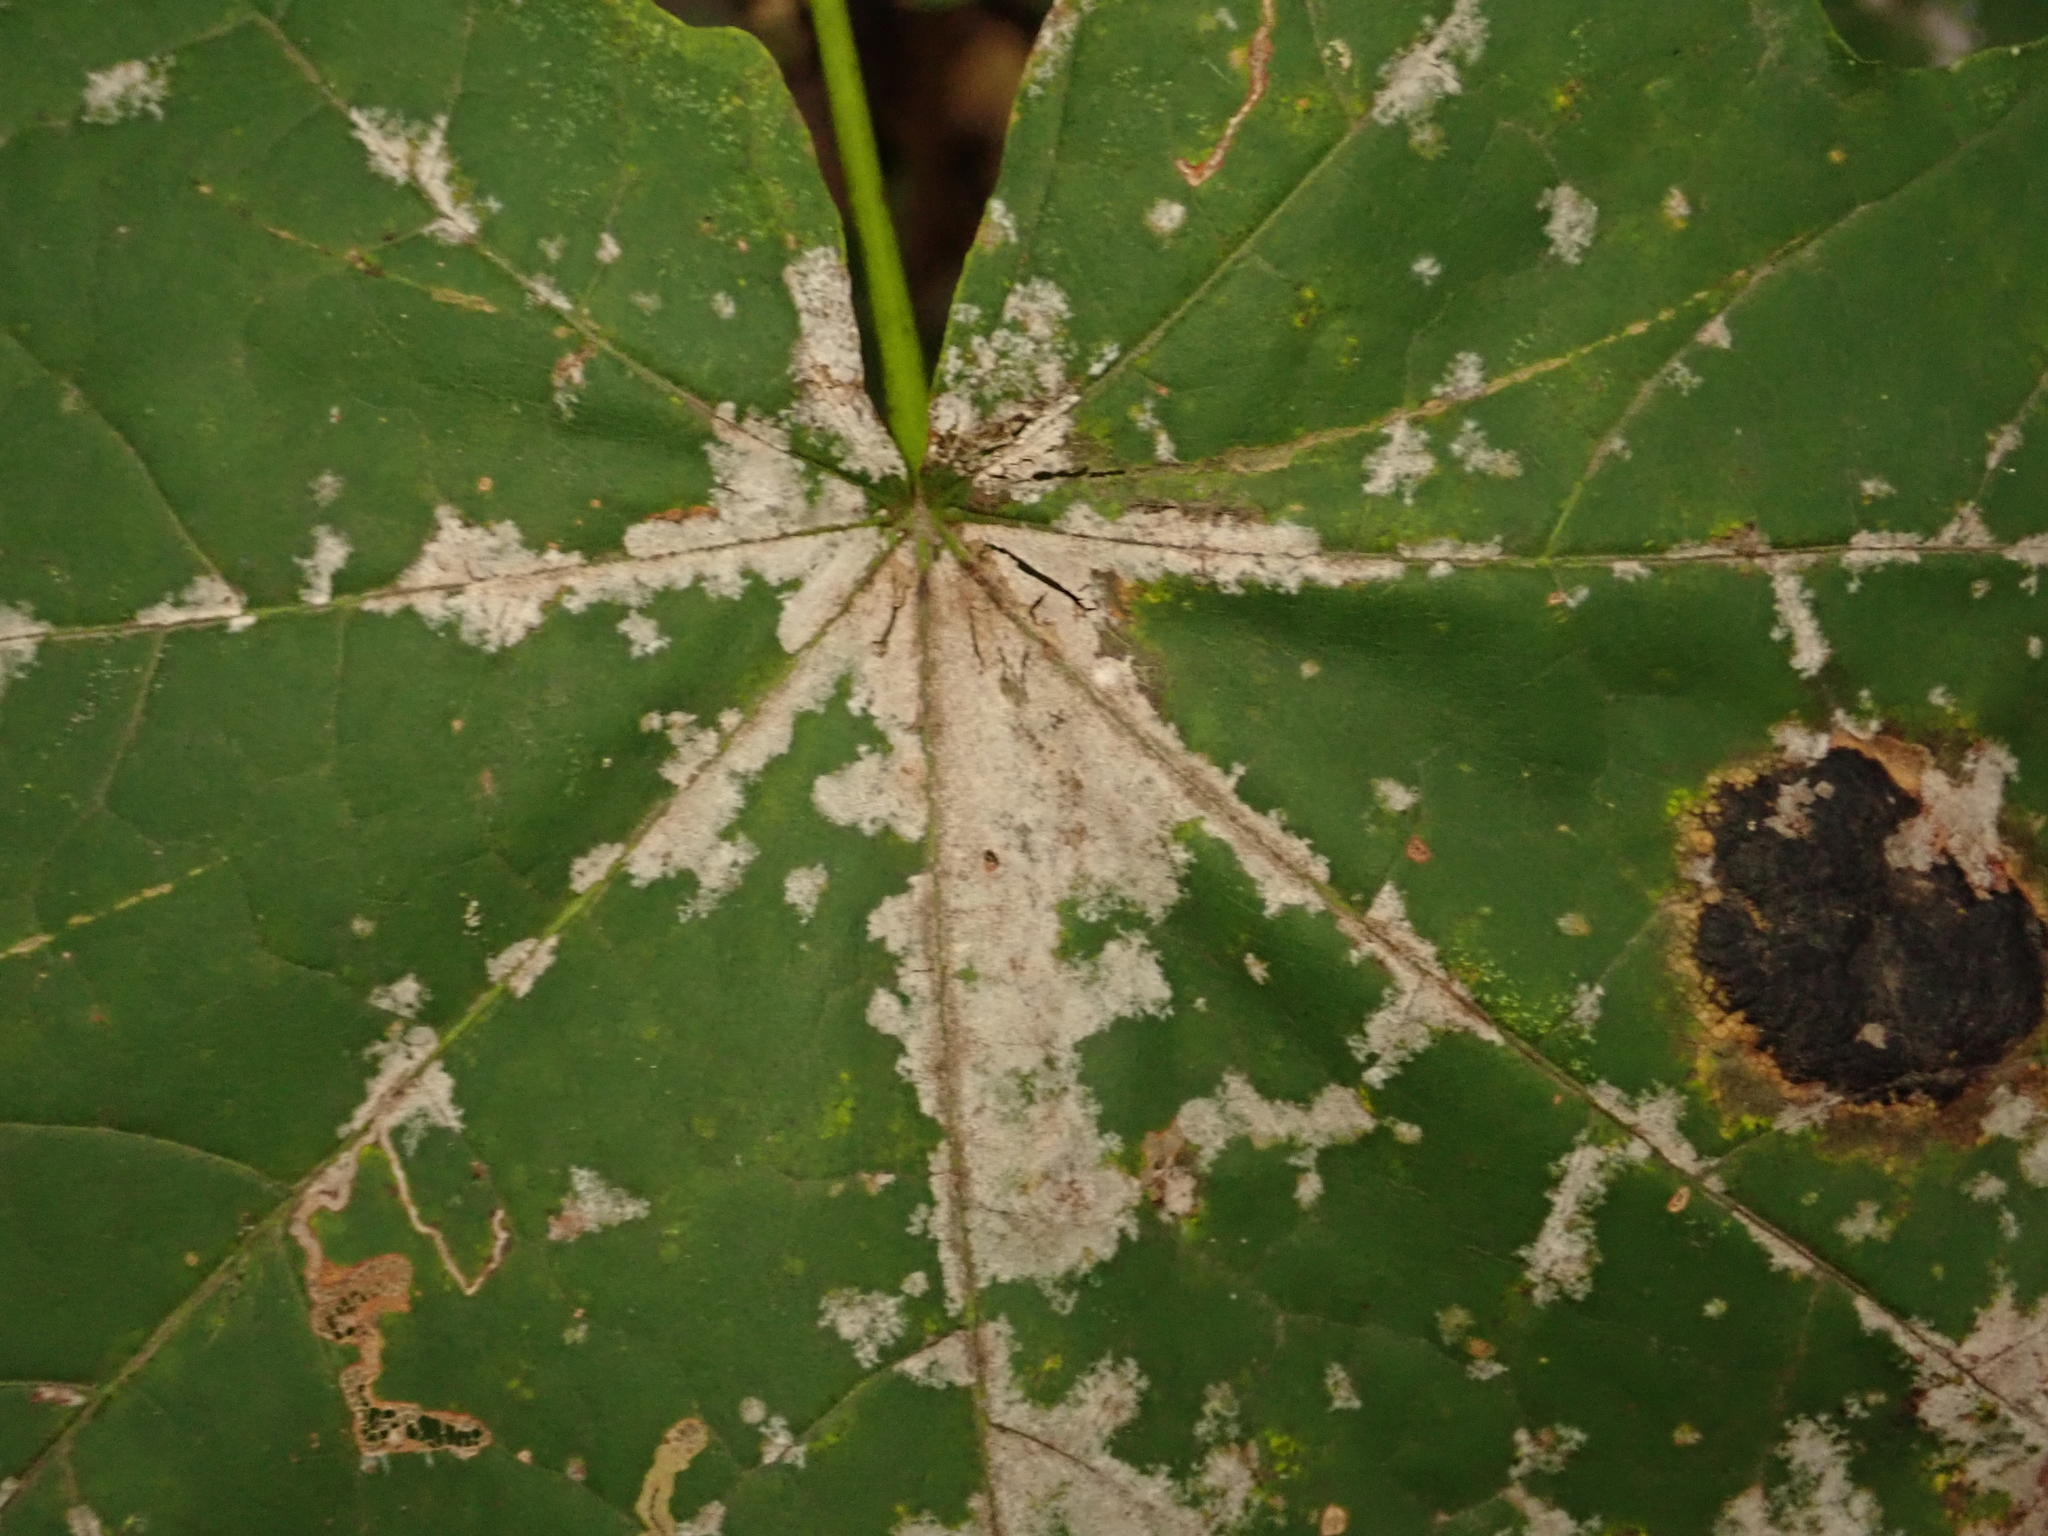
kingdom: Fungi
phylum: Ascomycota
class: Leotiomycetes
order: Helotiales
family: Erysiphaceae
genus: Sawadaea
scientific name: Sawadaea tulasnei
